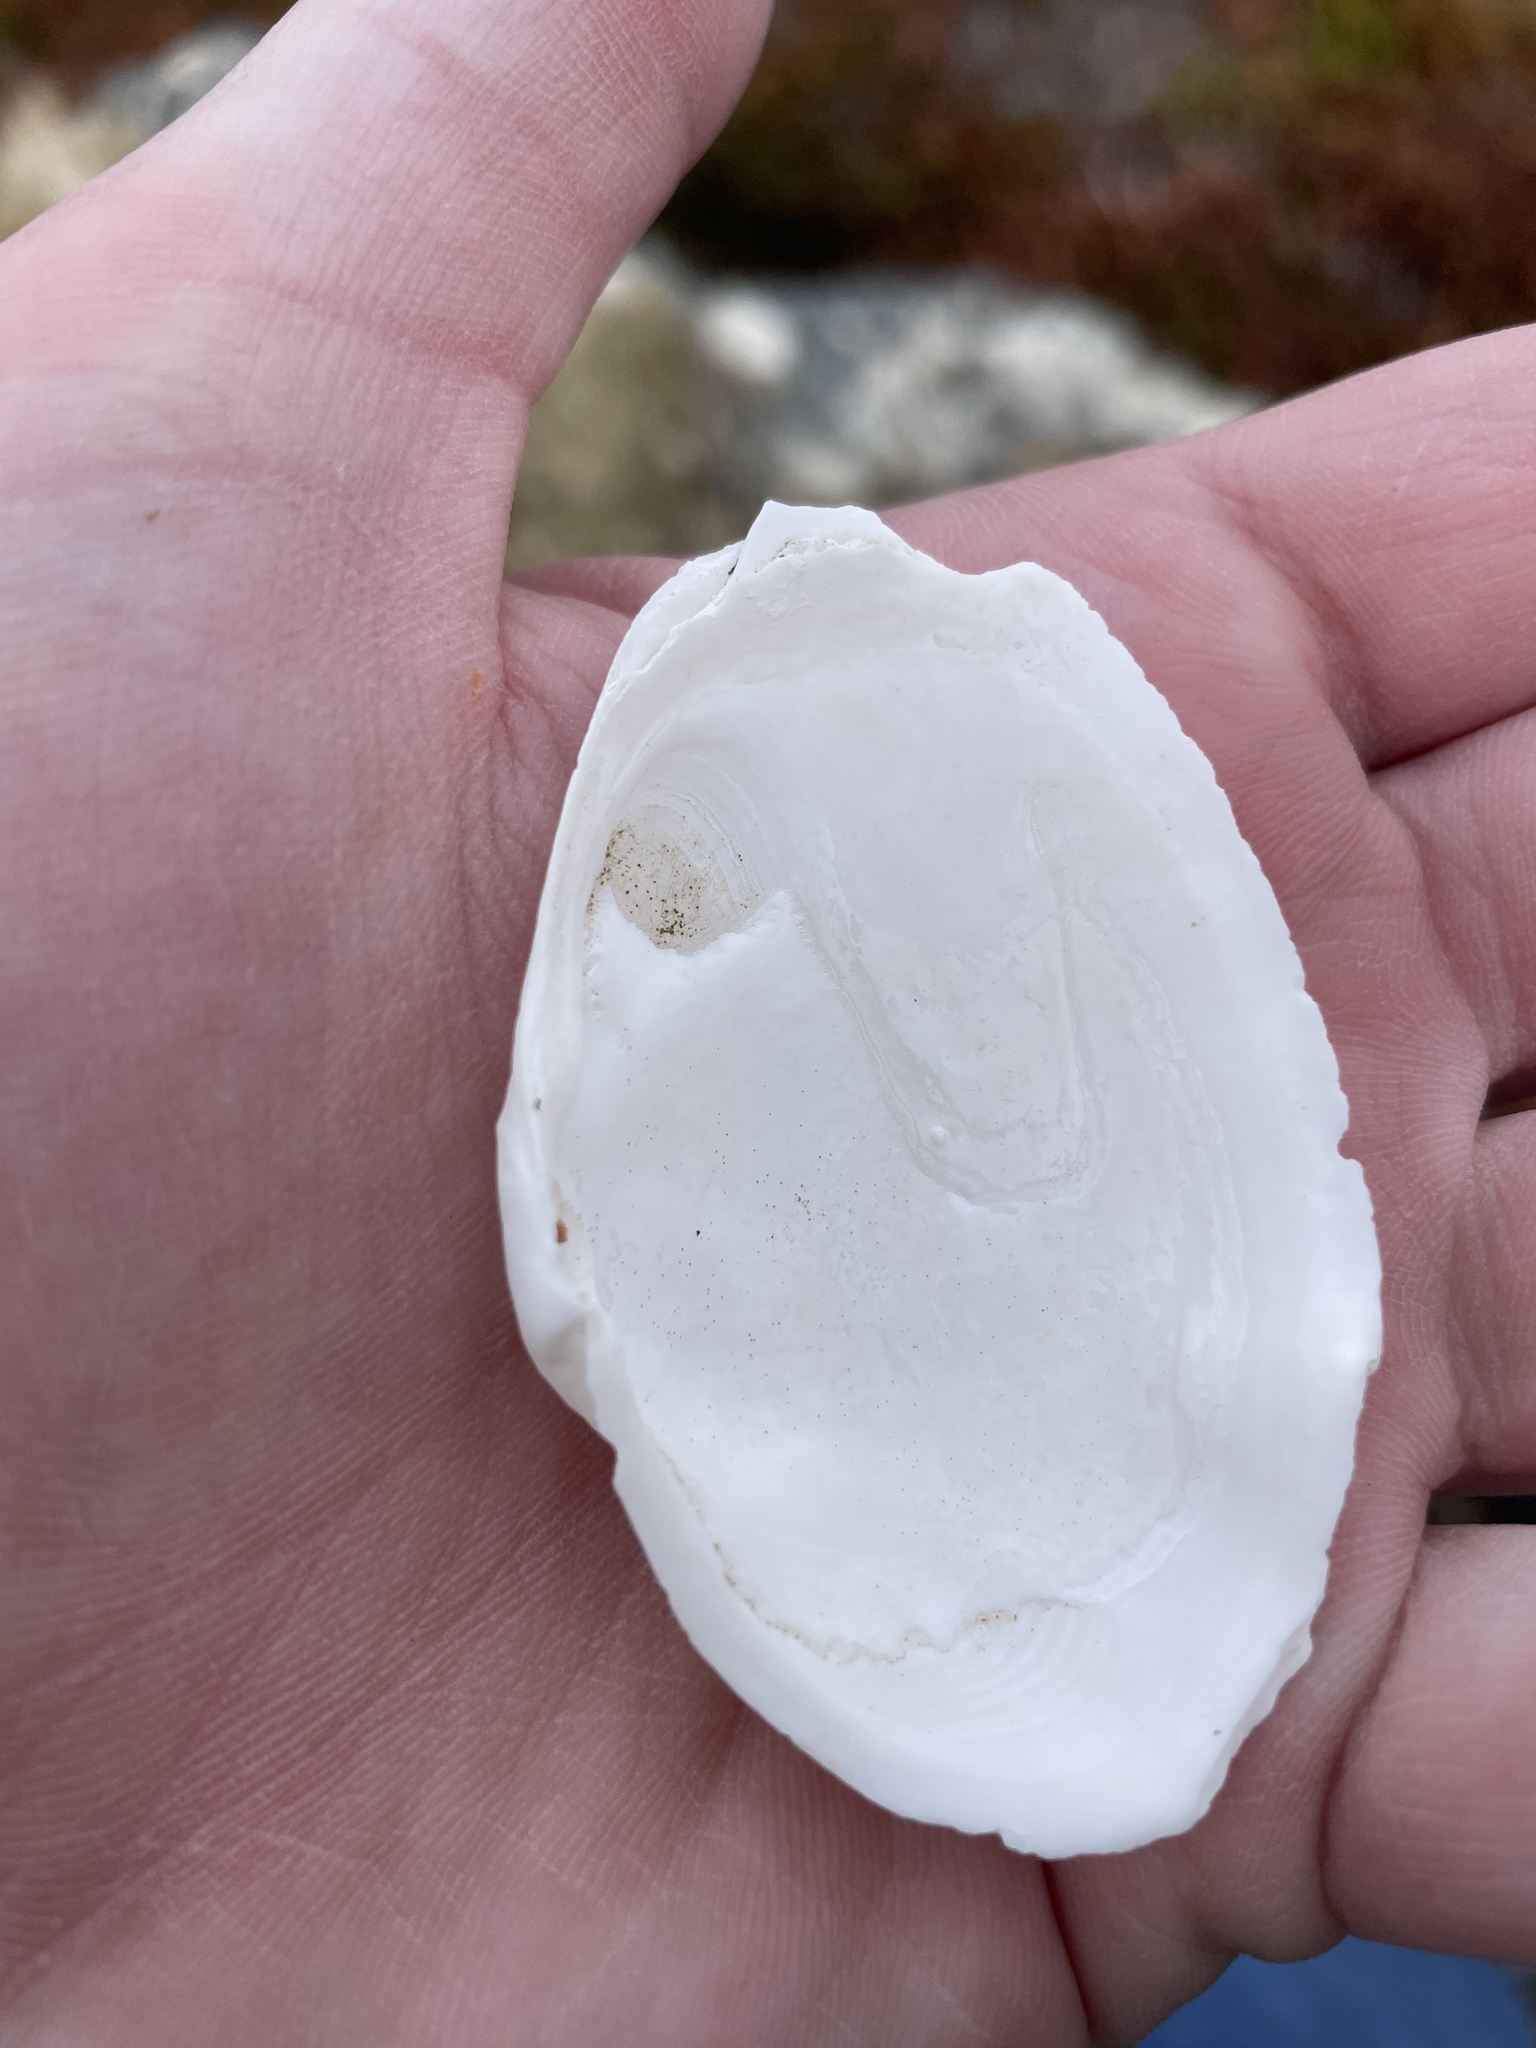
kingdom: Animalia
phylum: Mollusca
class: Bivalvia
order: Myida
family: Myidae
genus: Mya
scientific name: Mya arenaria
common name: Soft-shelled clam
